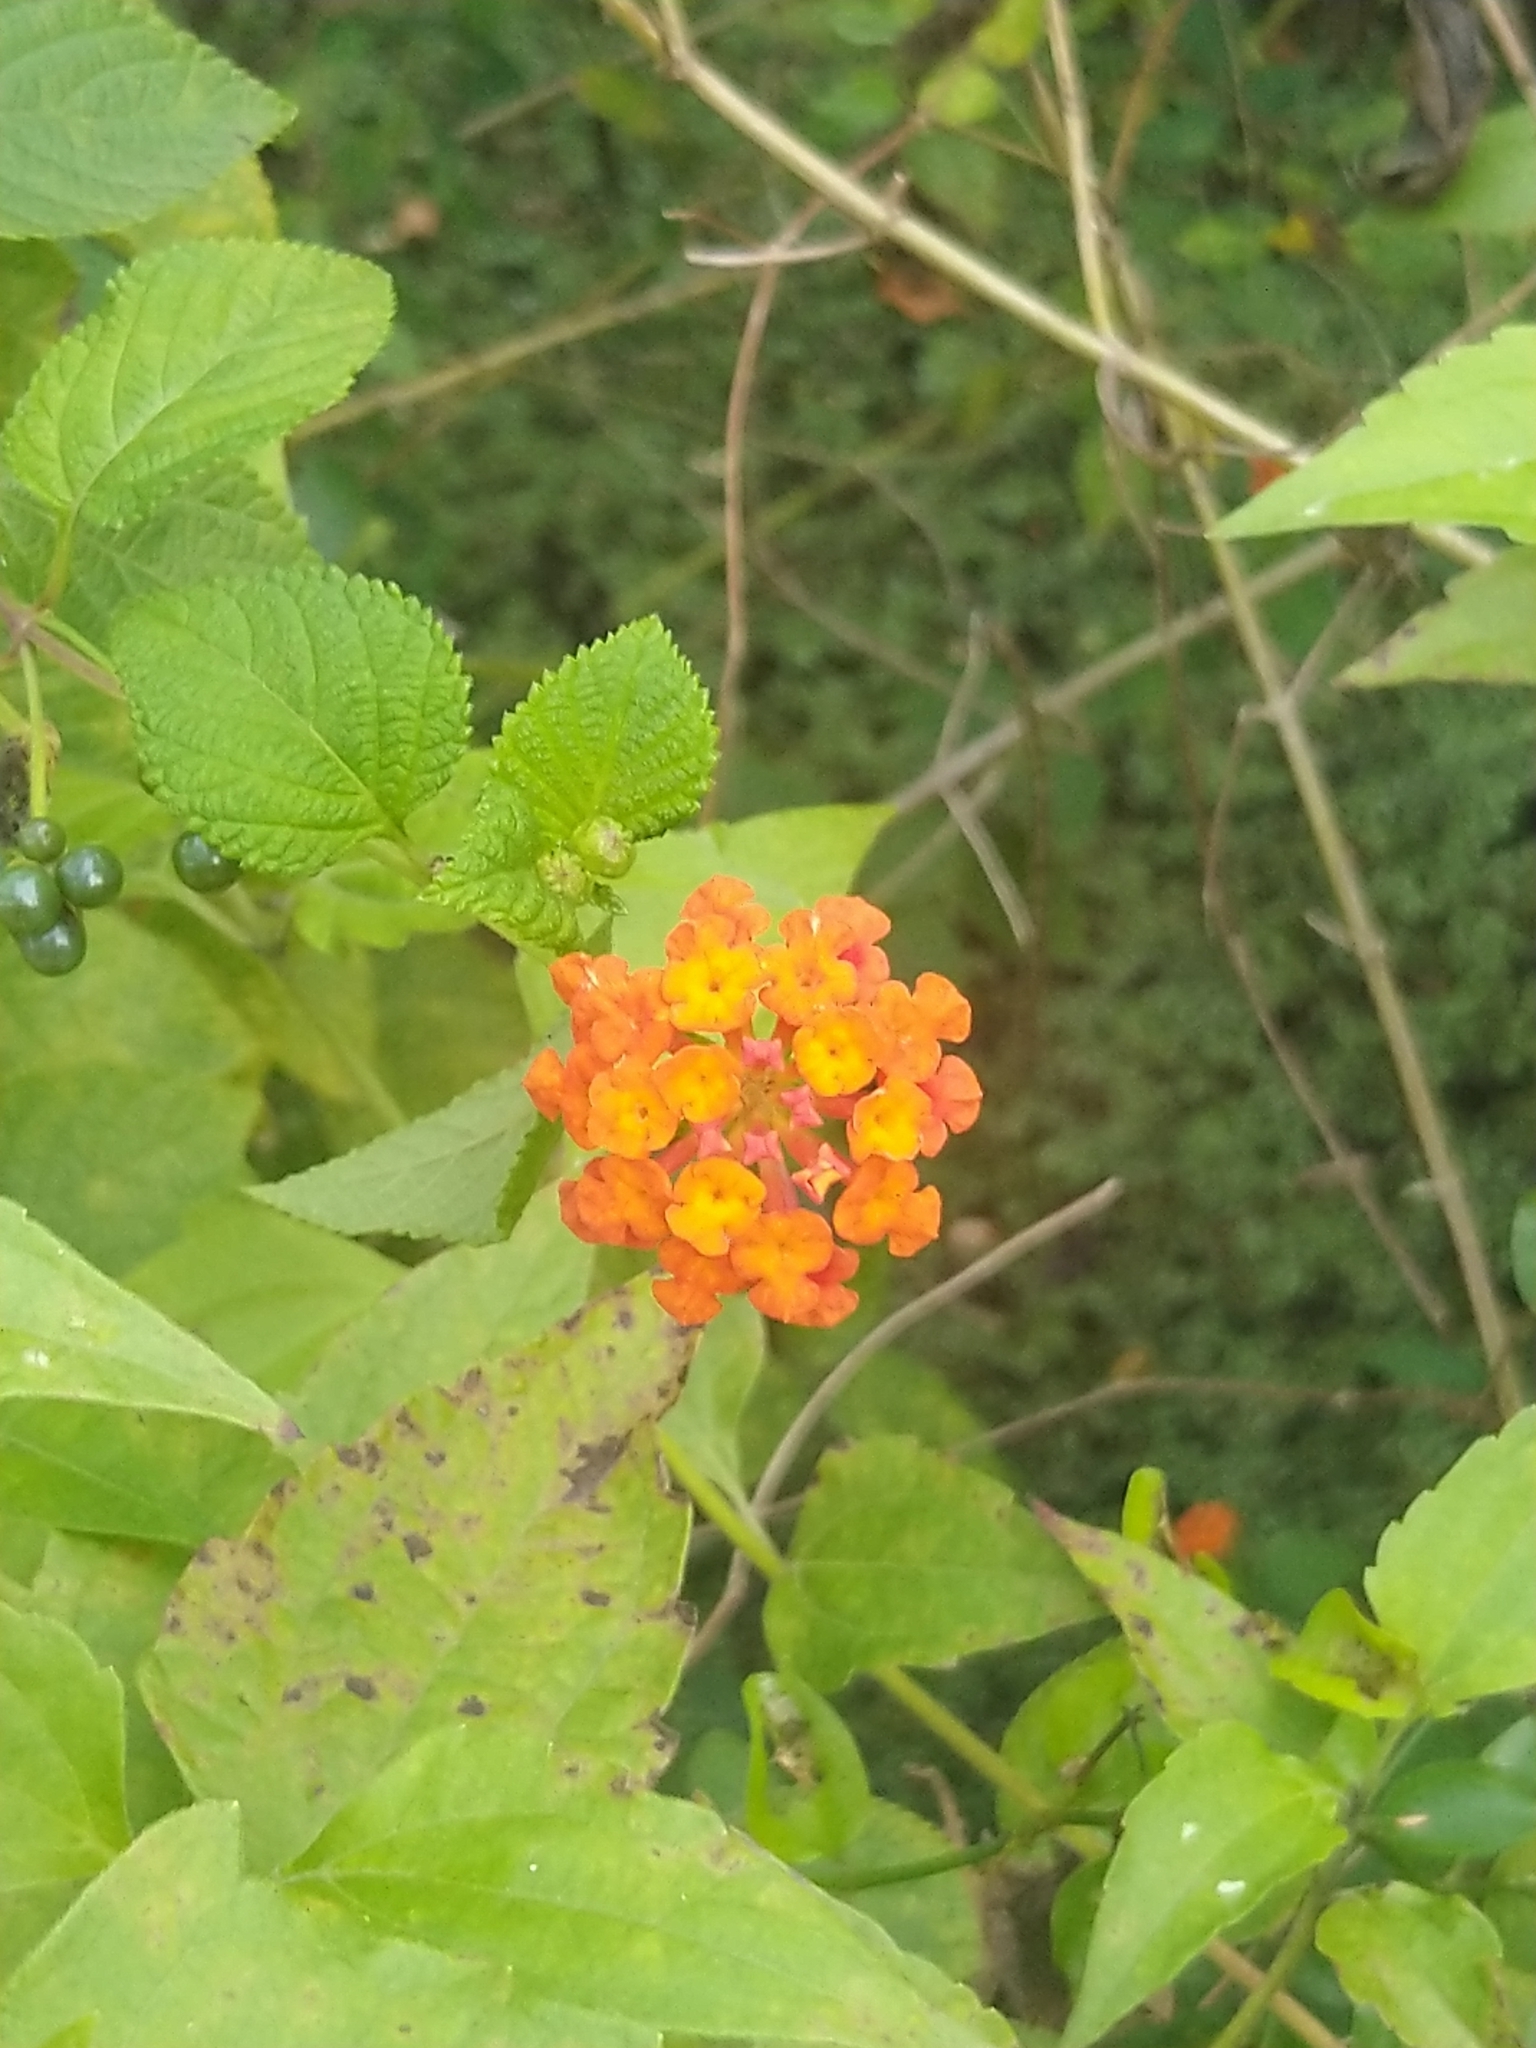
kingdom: Plantae
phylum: Tracheophyta
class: Magnoliopsida
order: Lamiales
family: Verbenaceae
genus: Lantana
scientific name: Lantana camara
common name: Lantana
